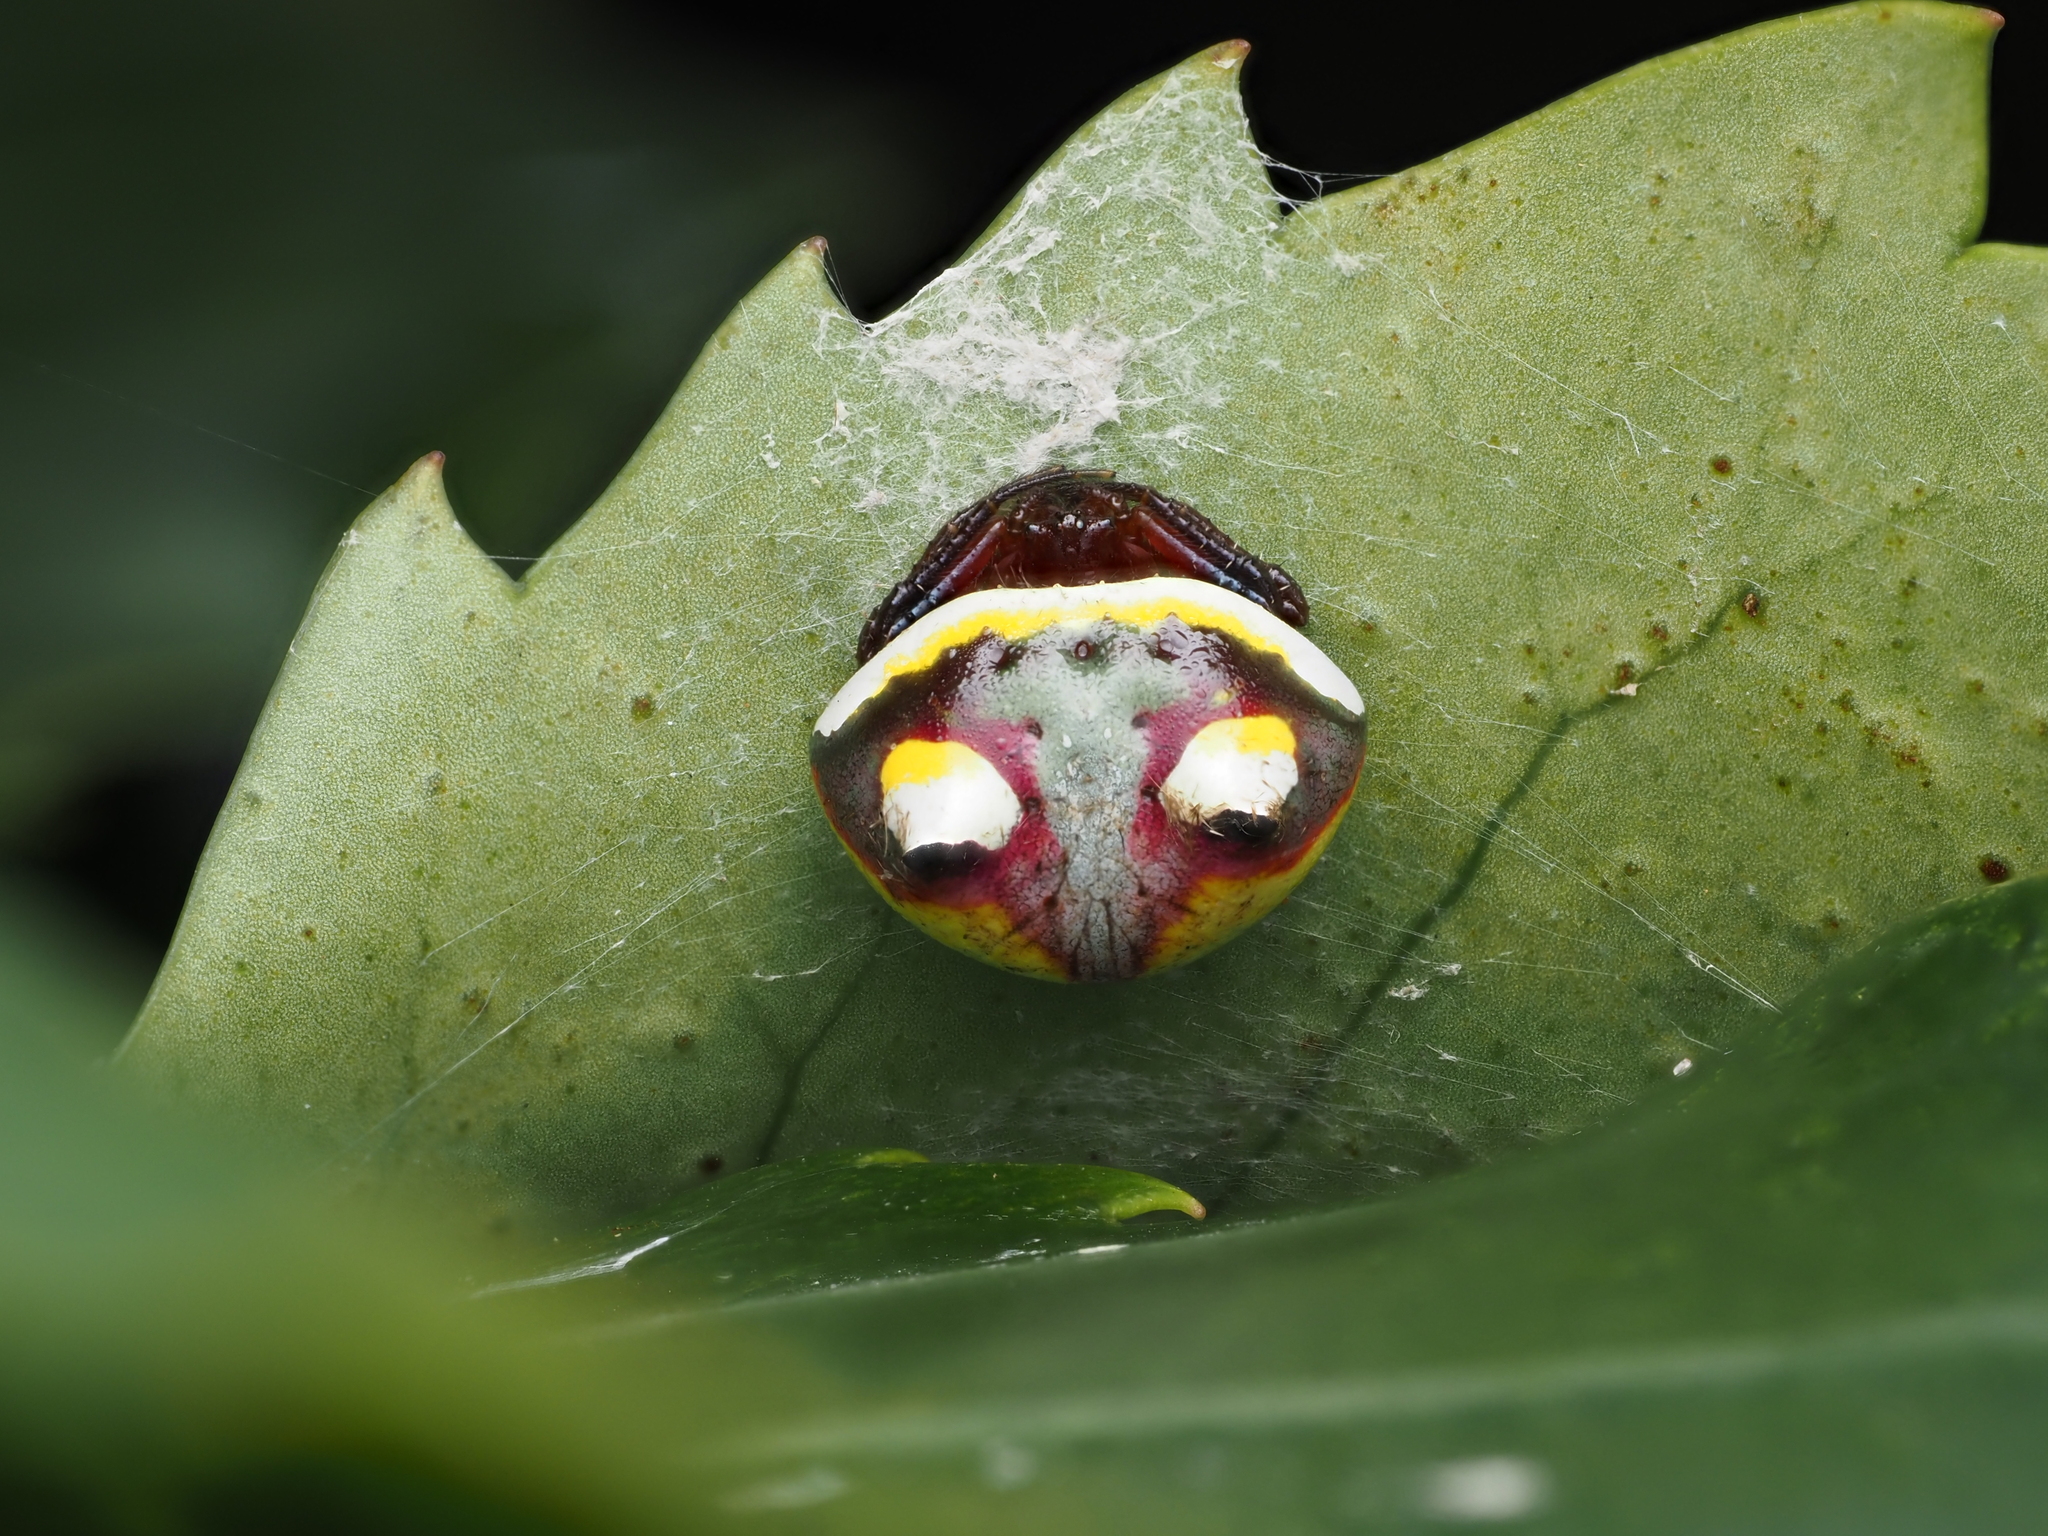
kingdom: Animalia
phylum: Arthropoda
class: Arachnida
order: Araneae
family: Araneidae
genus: Poecilopachys
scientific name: Poecilopachys australasia
